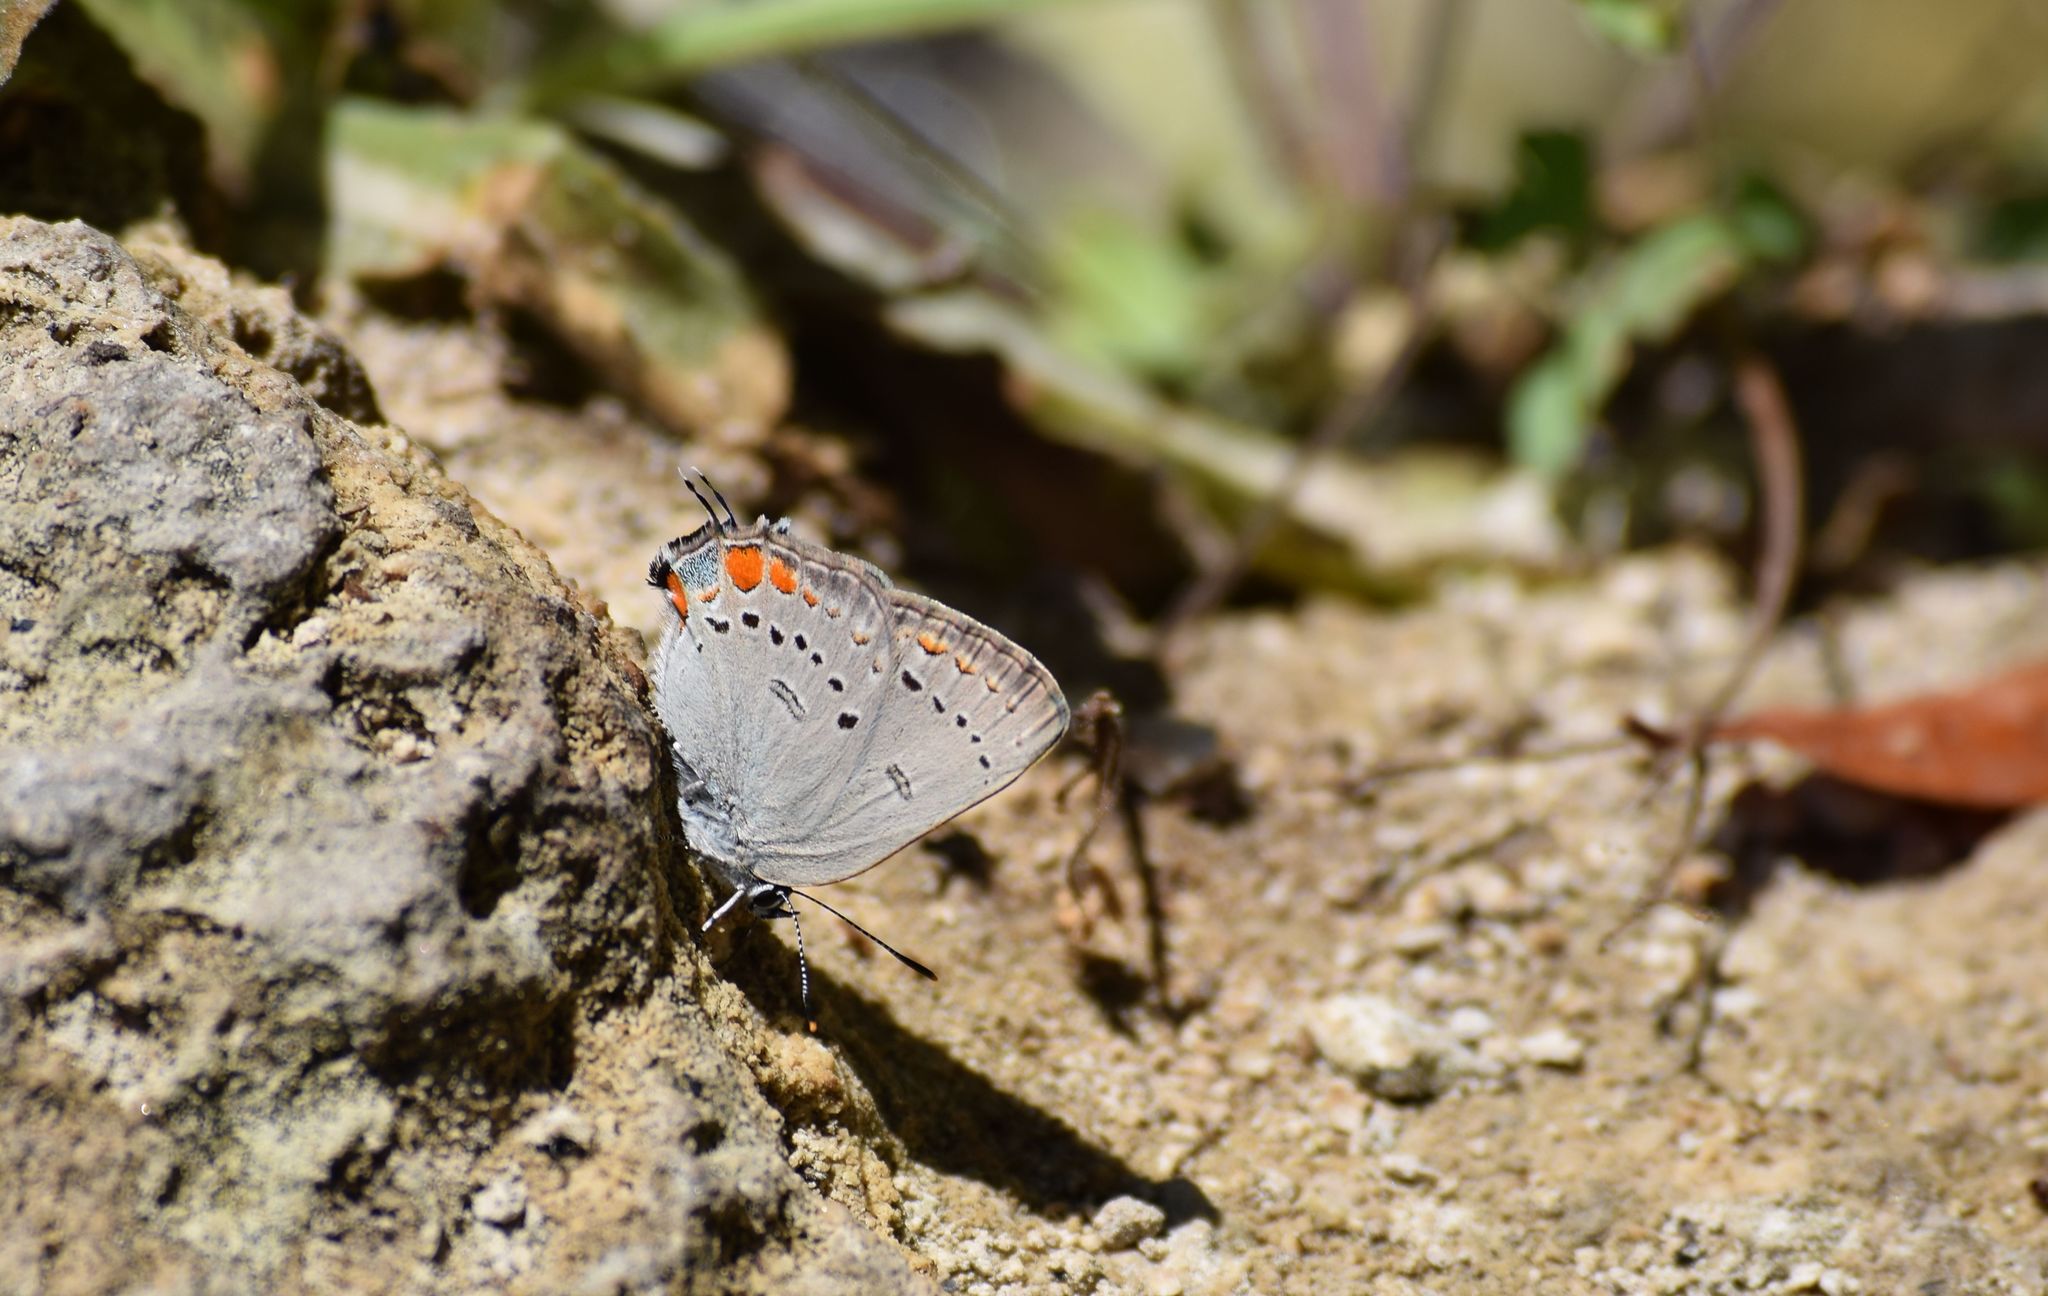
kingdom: Animalia
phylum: Arthropoda
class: Insecta
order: Lepidoptera
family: Lycaenidae
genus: Strymon
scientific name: Strymon acadica
